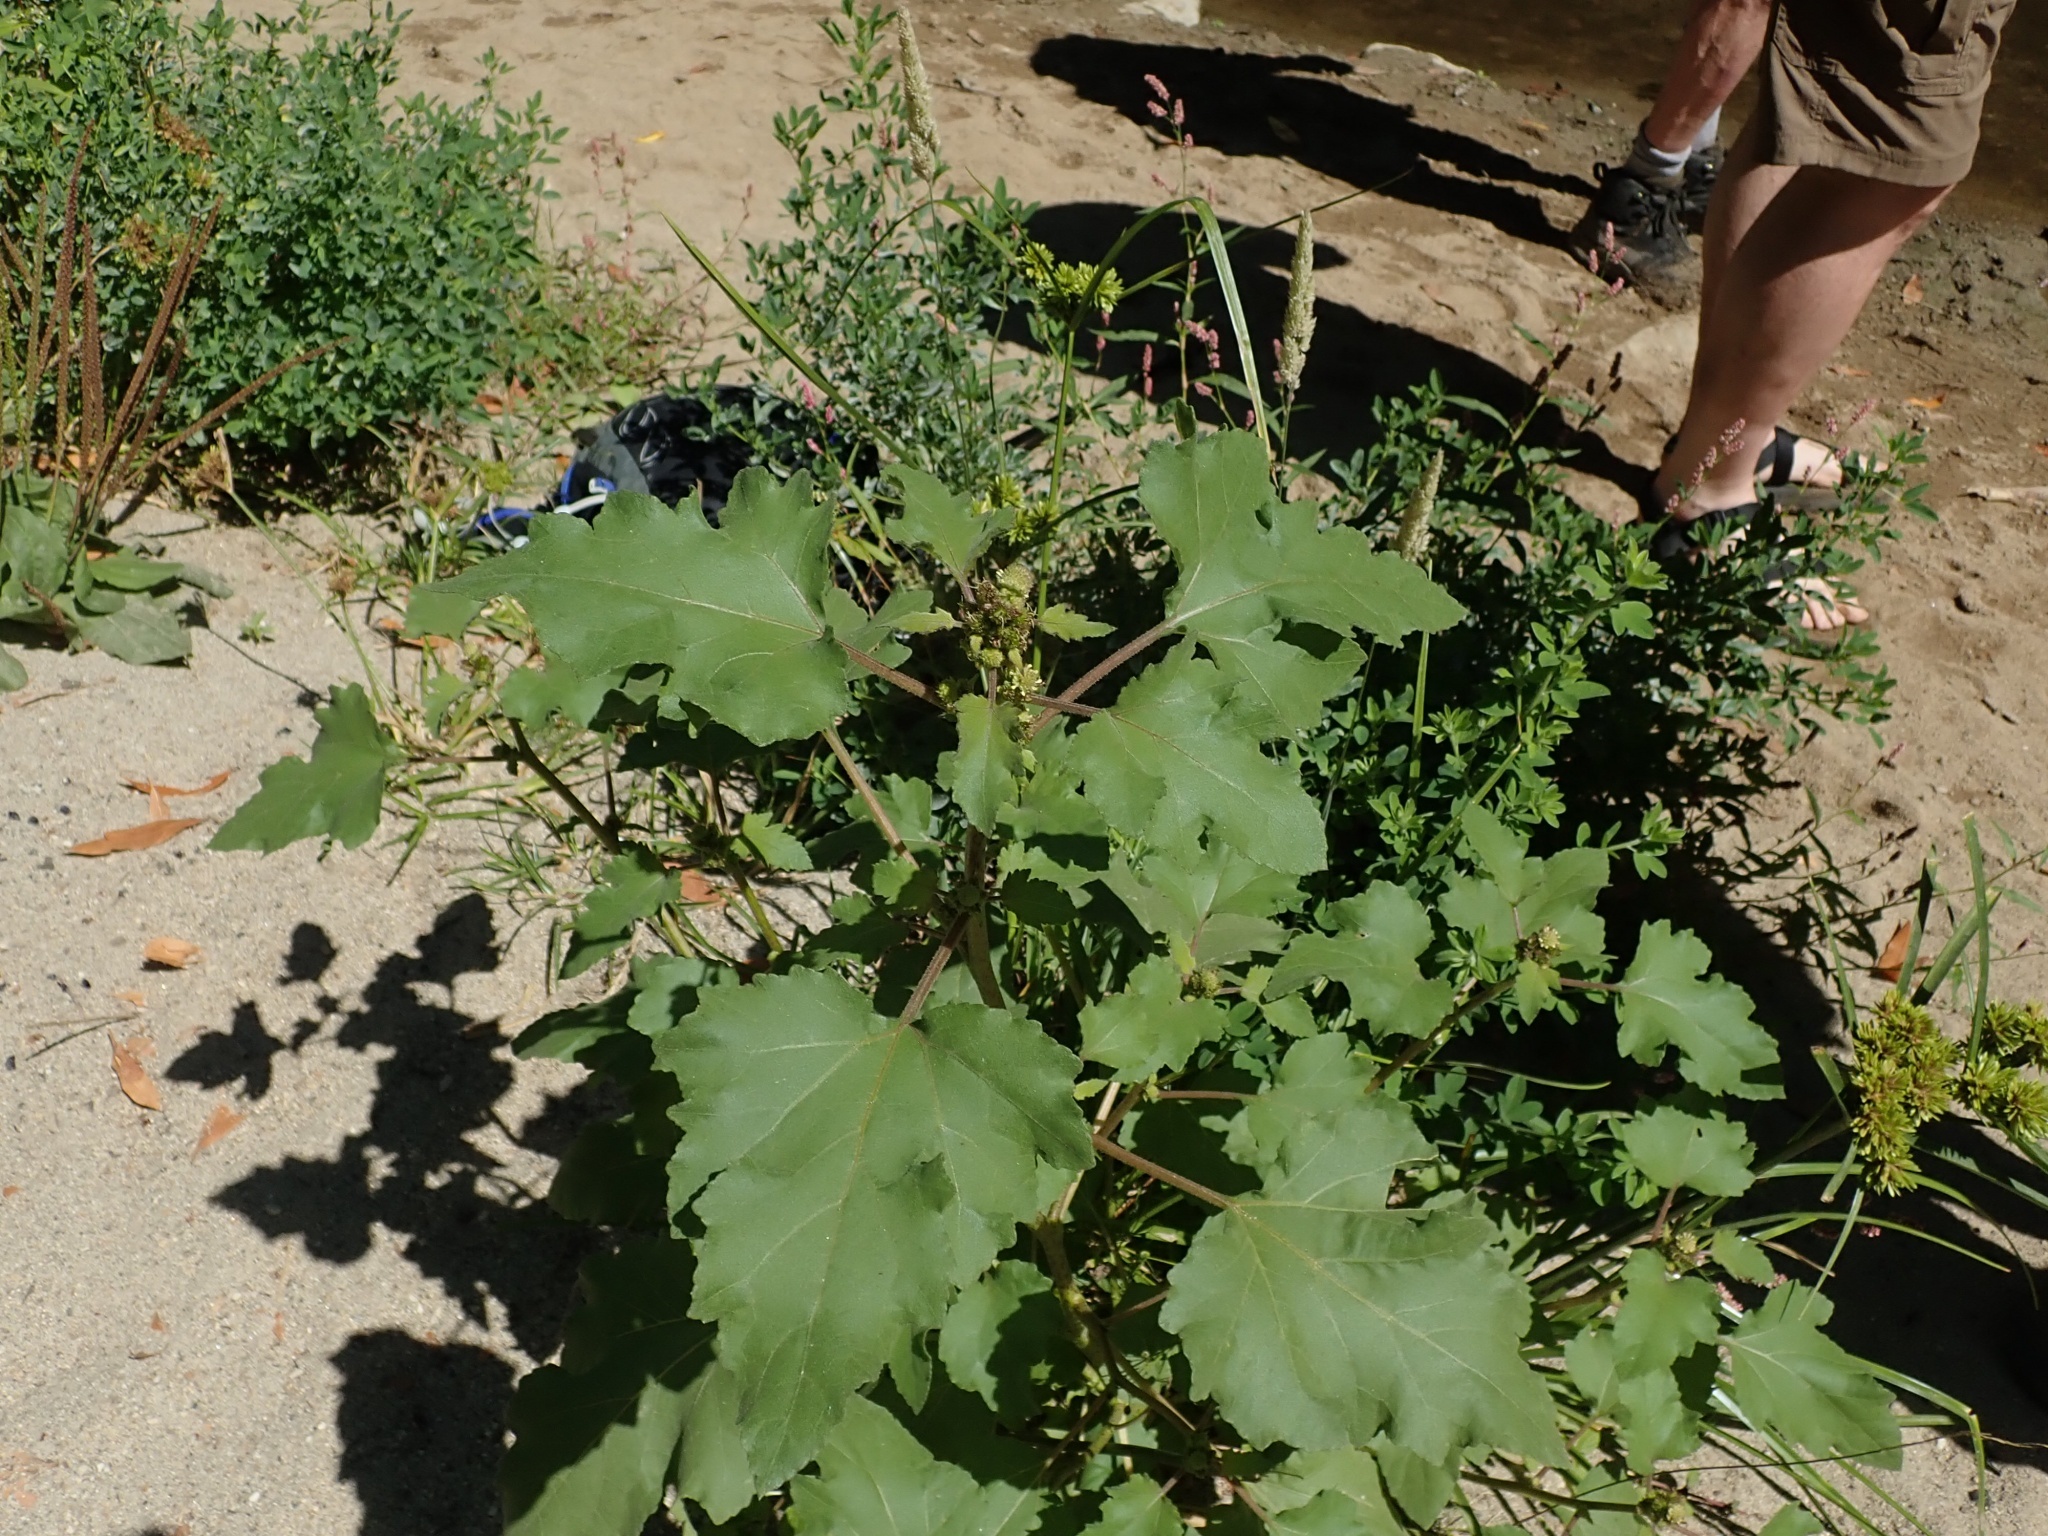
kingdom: Plantae
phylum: Tracheophyta
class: Magnoliopsida
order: Asterales
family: Asteraceae
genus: Xanthium
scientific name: Xanthium orientale
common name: Californian burr
